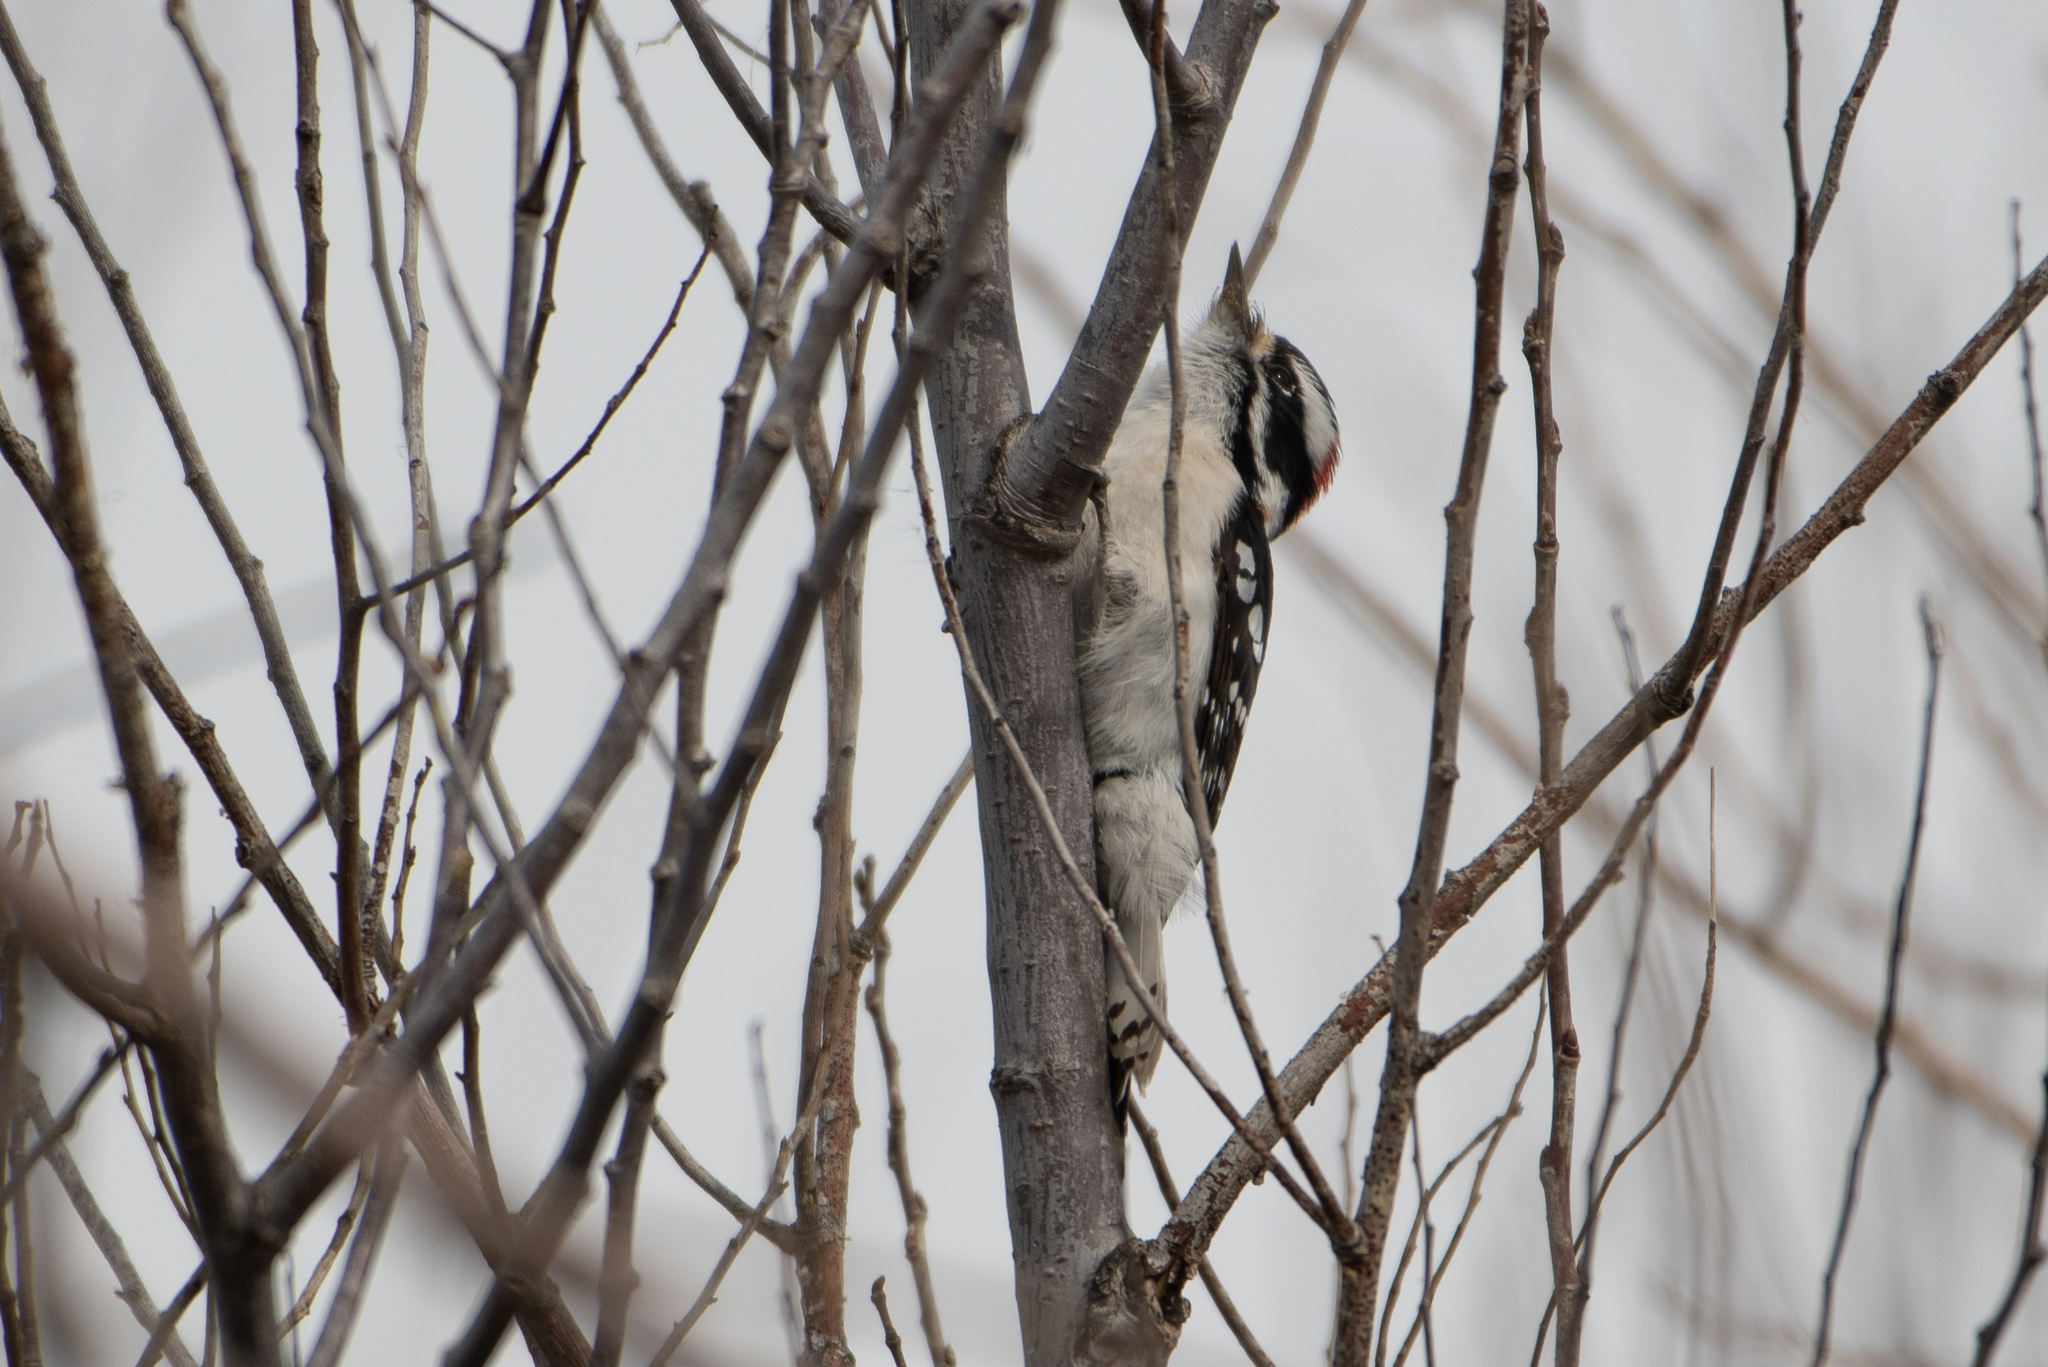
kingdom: Animalia
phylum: Chordata
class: Aves
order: Piciformes
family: Picidae
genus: Dryobates
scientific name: Dryobates pubescens
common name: Downy woodpecker
